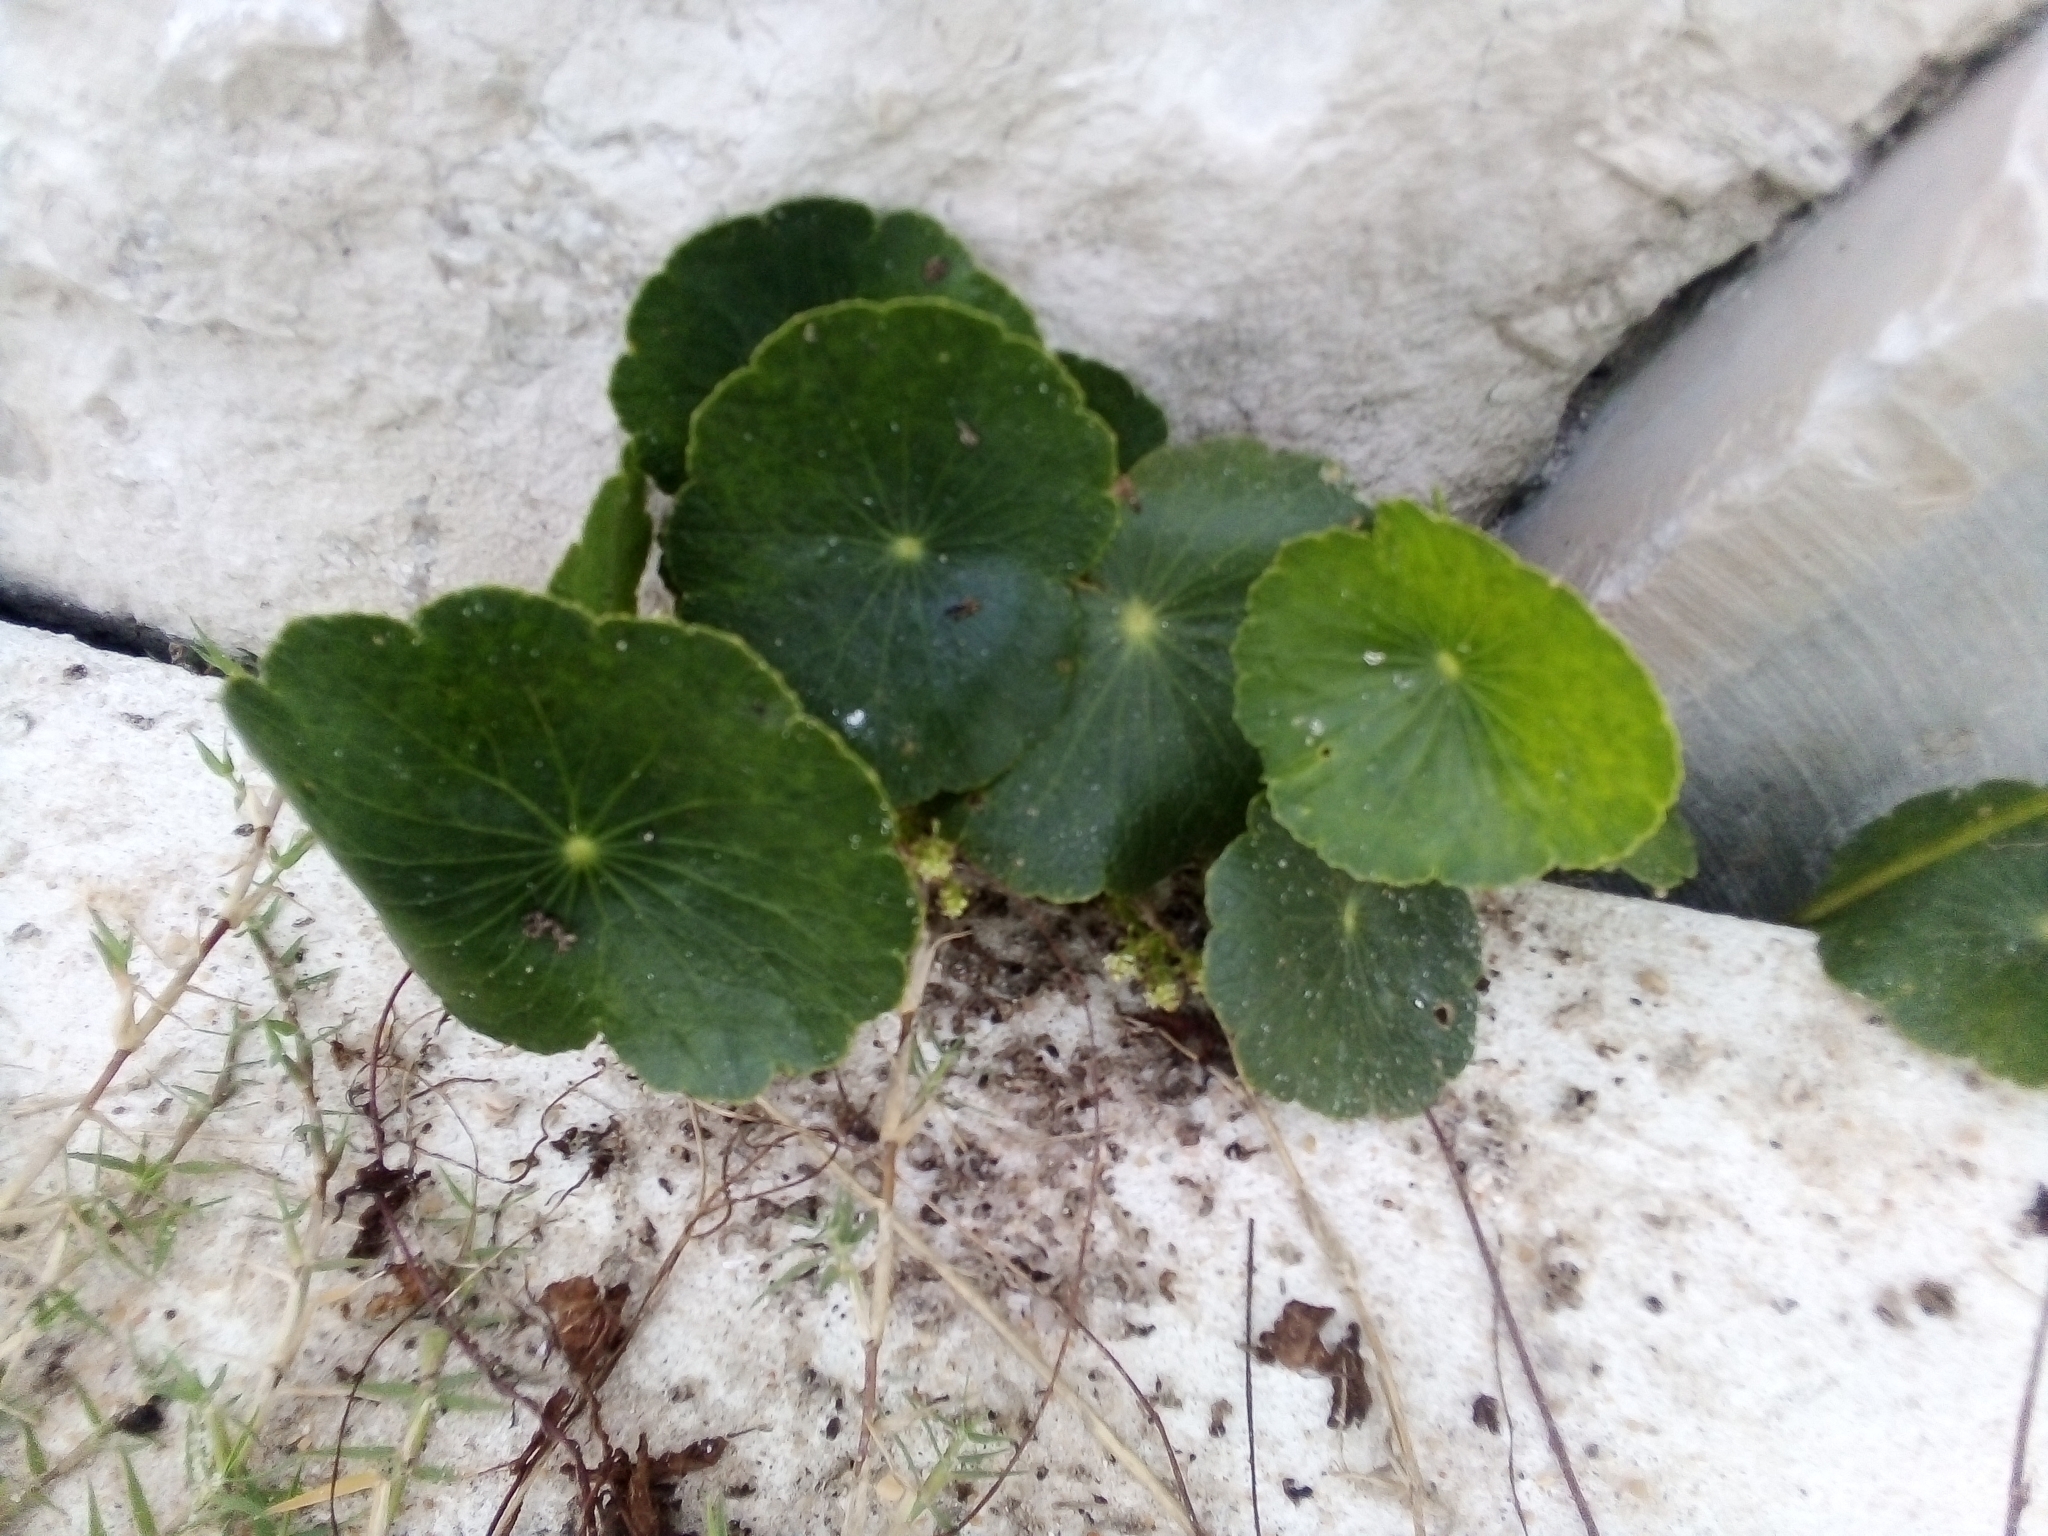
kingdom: Plantae
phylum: Tracheophyta
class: Magnoliopsida
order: Apiales
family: Araliaceae
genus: Hydrocotyle
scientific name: Hydrocotyle bonariensis
